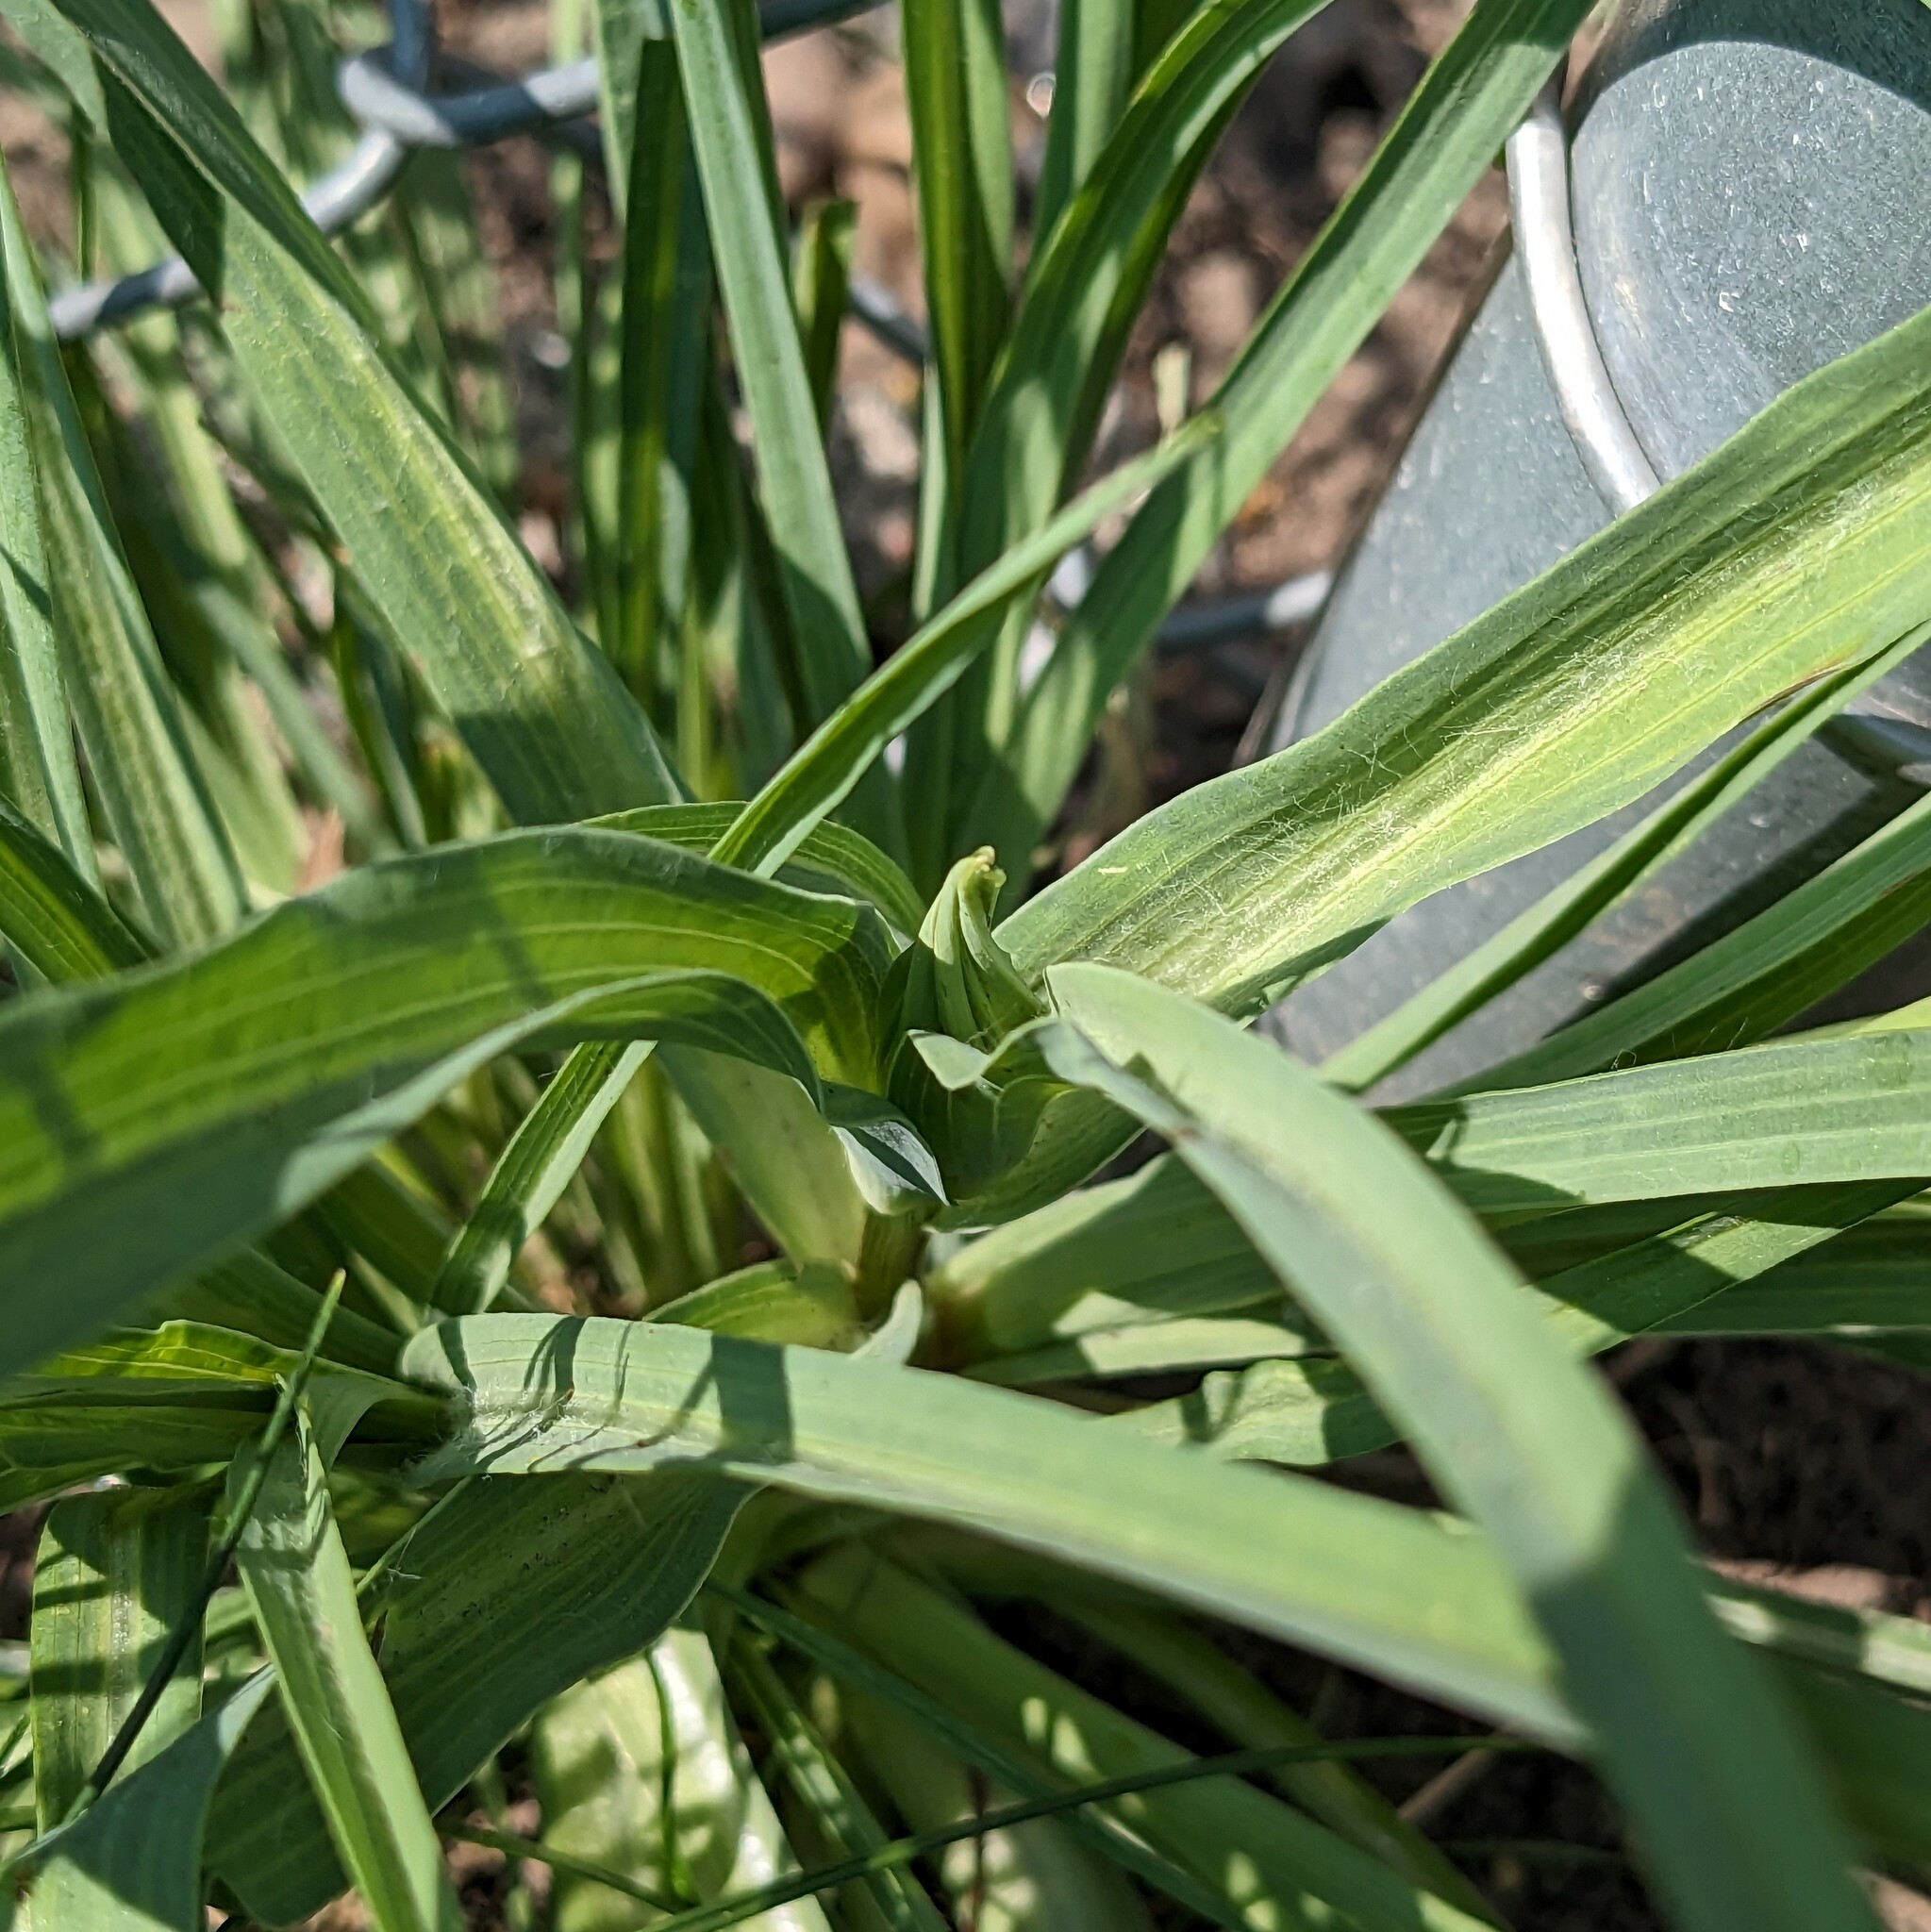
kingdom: Plantae
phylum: Tracheophyta
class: Magnoliopsida
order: Asterales
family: Asteraceae
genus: Tragopogon
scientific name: Tragopogon dubius
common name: Yellow salsify
